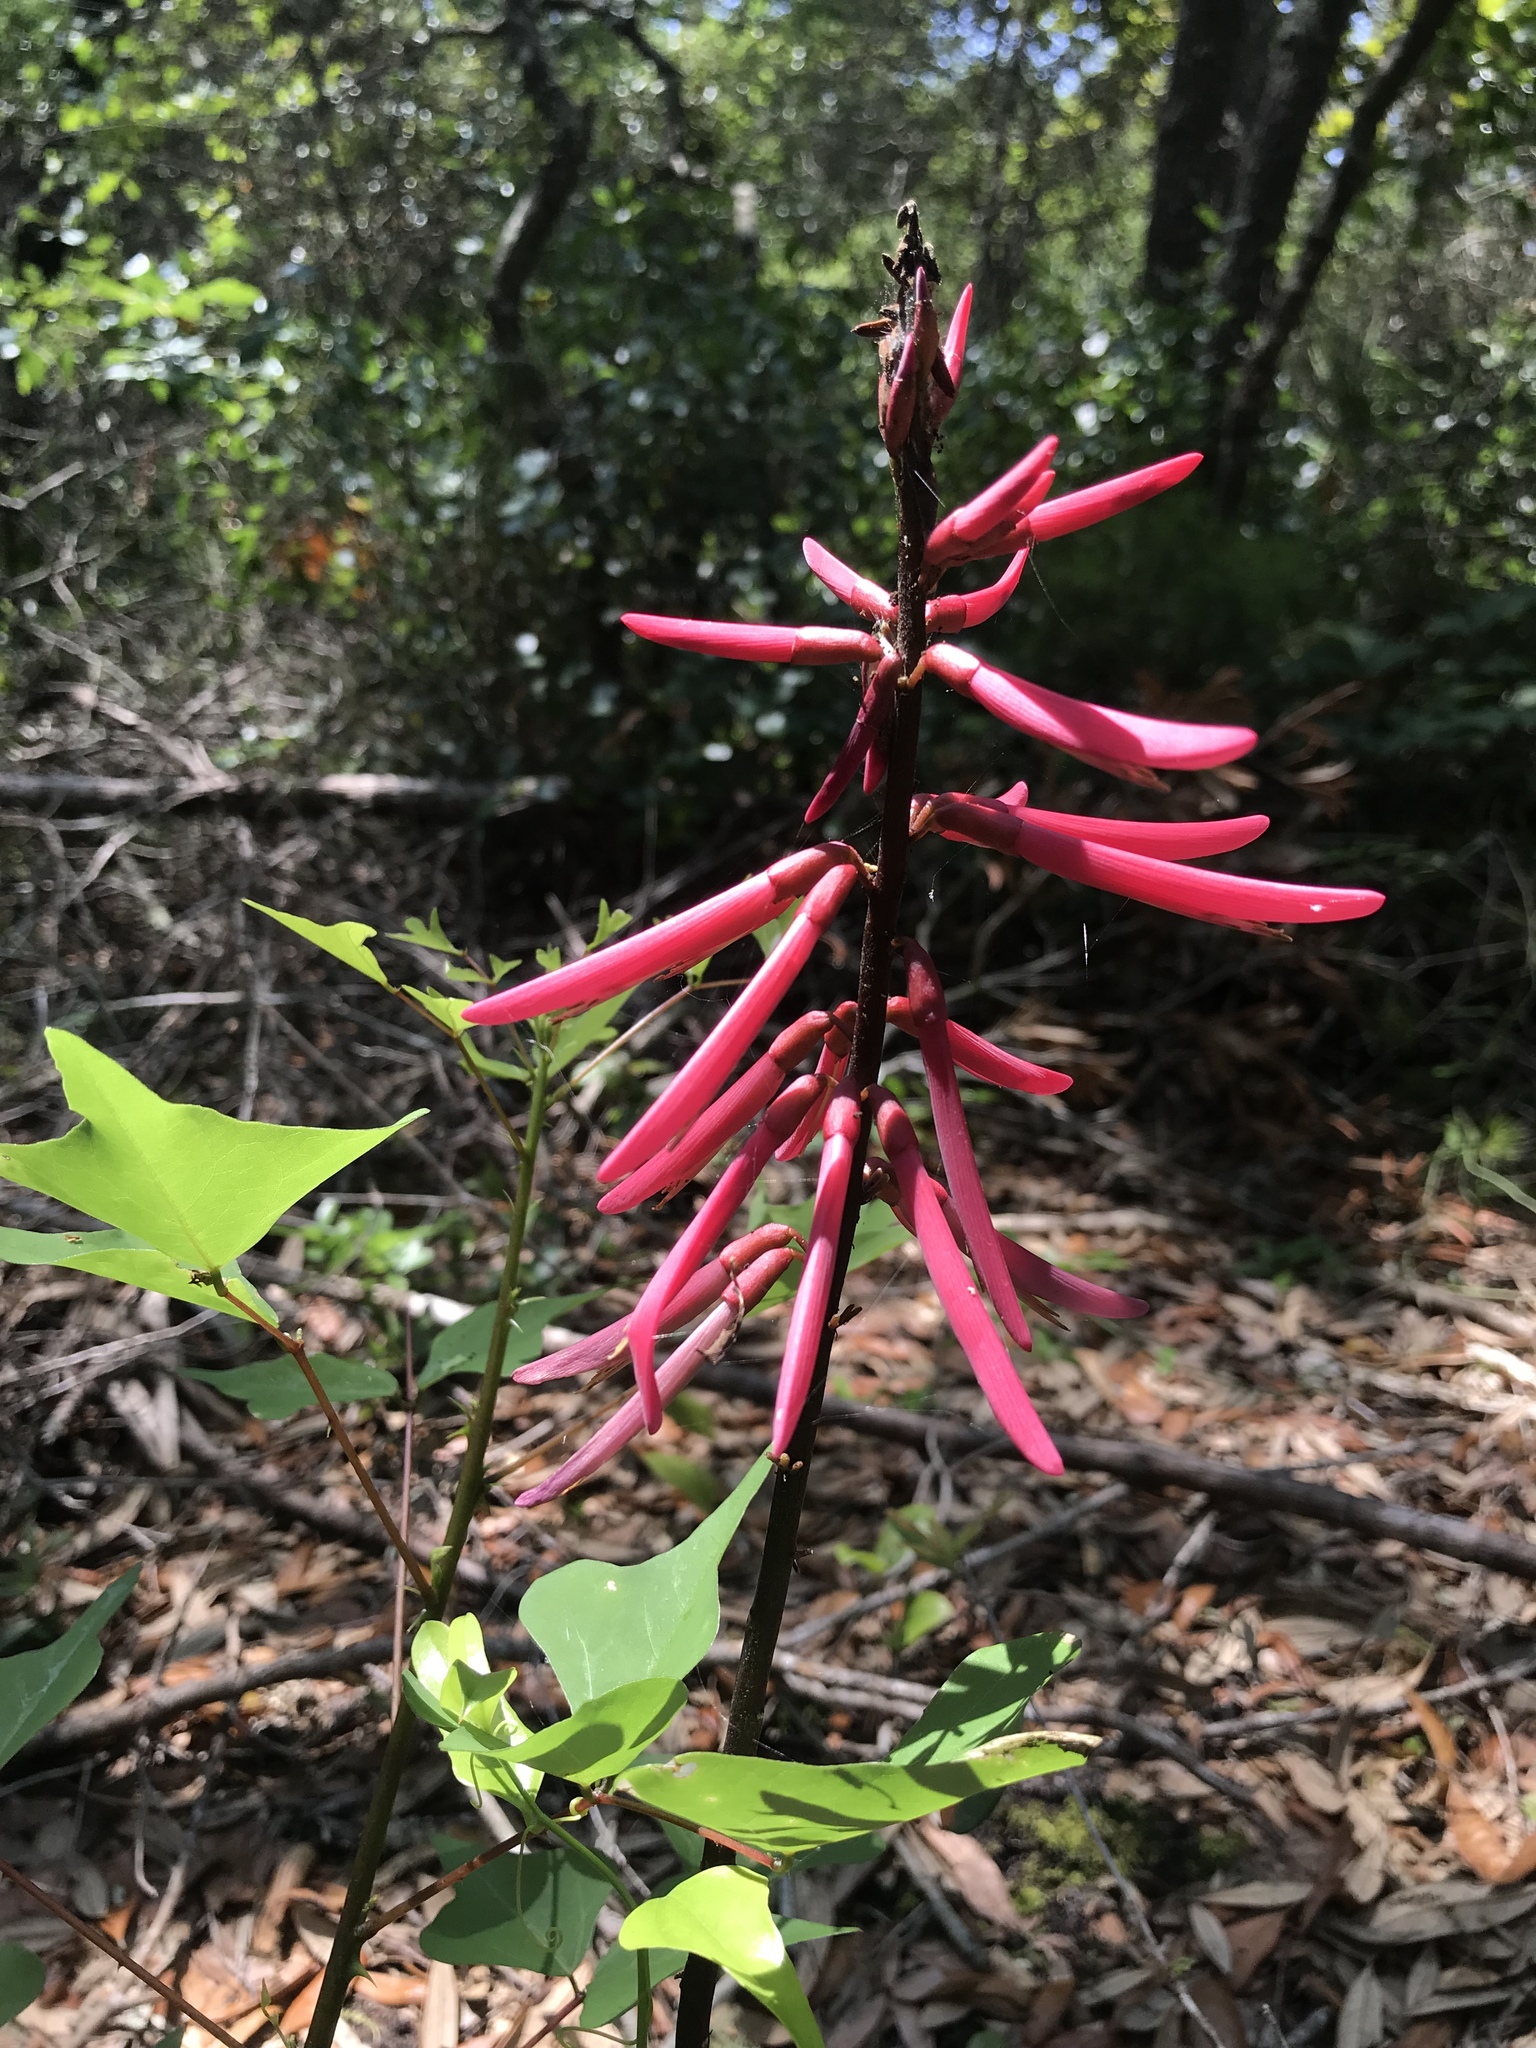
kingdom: Plantae
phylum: Tracheophyta
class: Magnoliopsida
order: Fabales
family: Fabaceae
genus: Erythrina
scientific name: Erythrina herbacea
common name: Coral-bean
